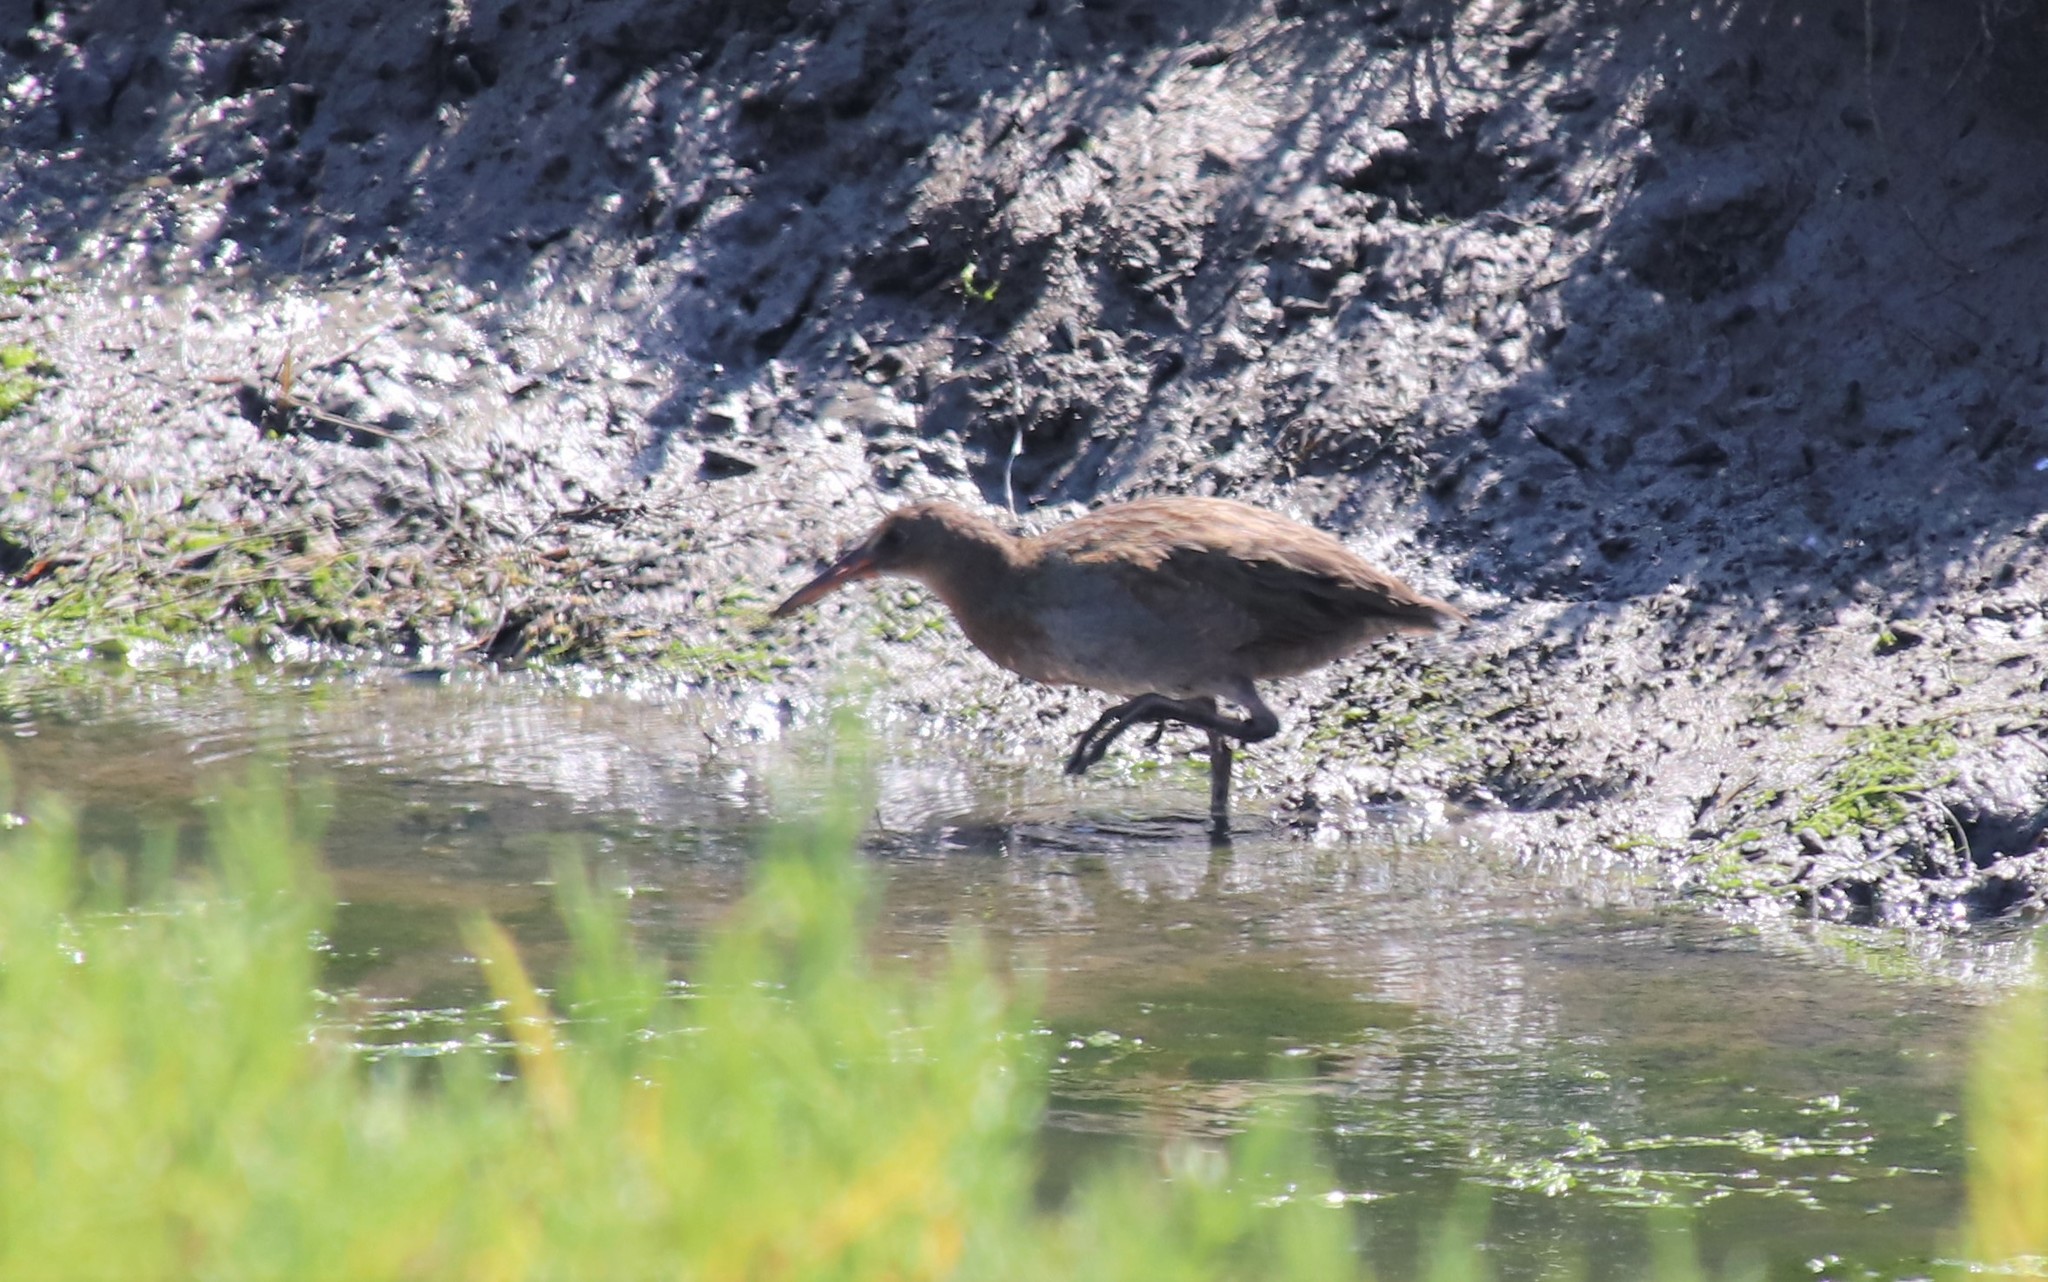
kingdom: Animalia
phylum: Chordata
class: Aves
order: Gruiformes
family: Rallidae
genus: Rallus
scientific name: Rallus obsoletus
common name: Ridgway's rail
